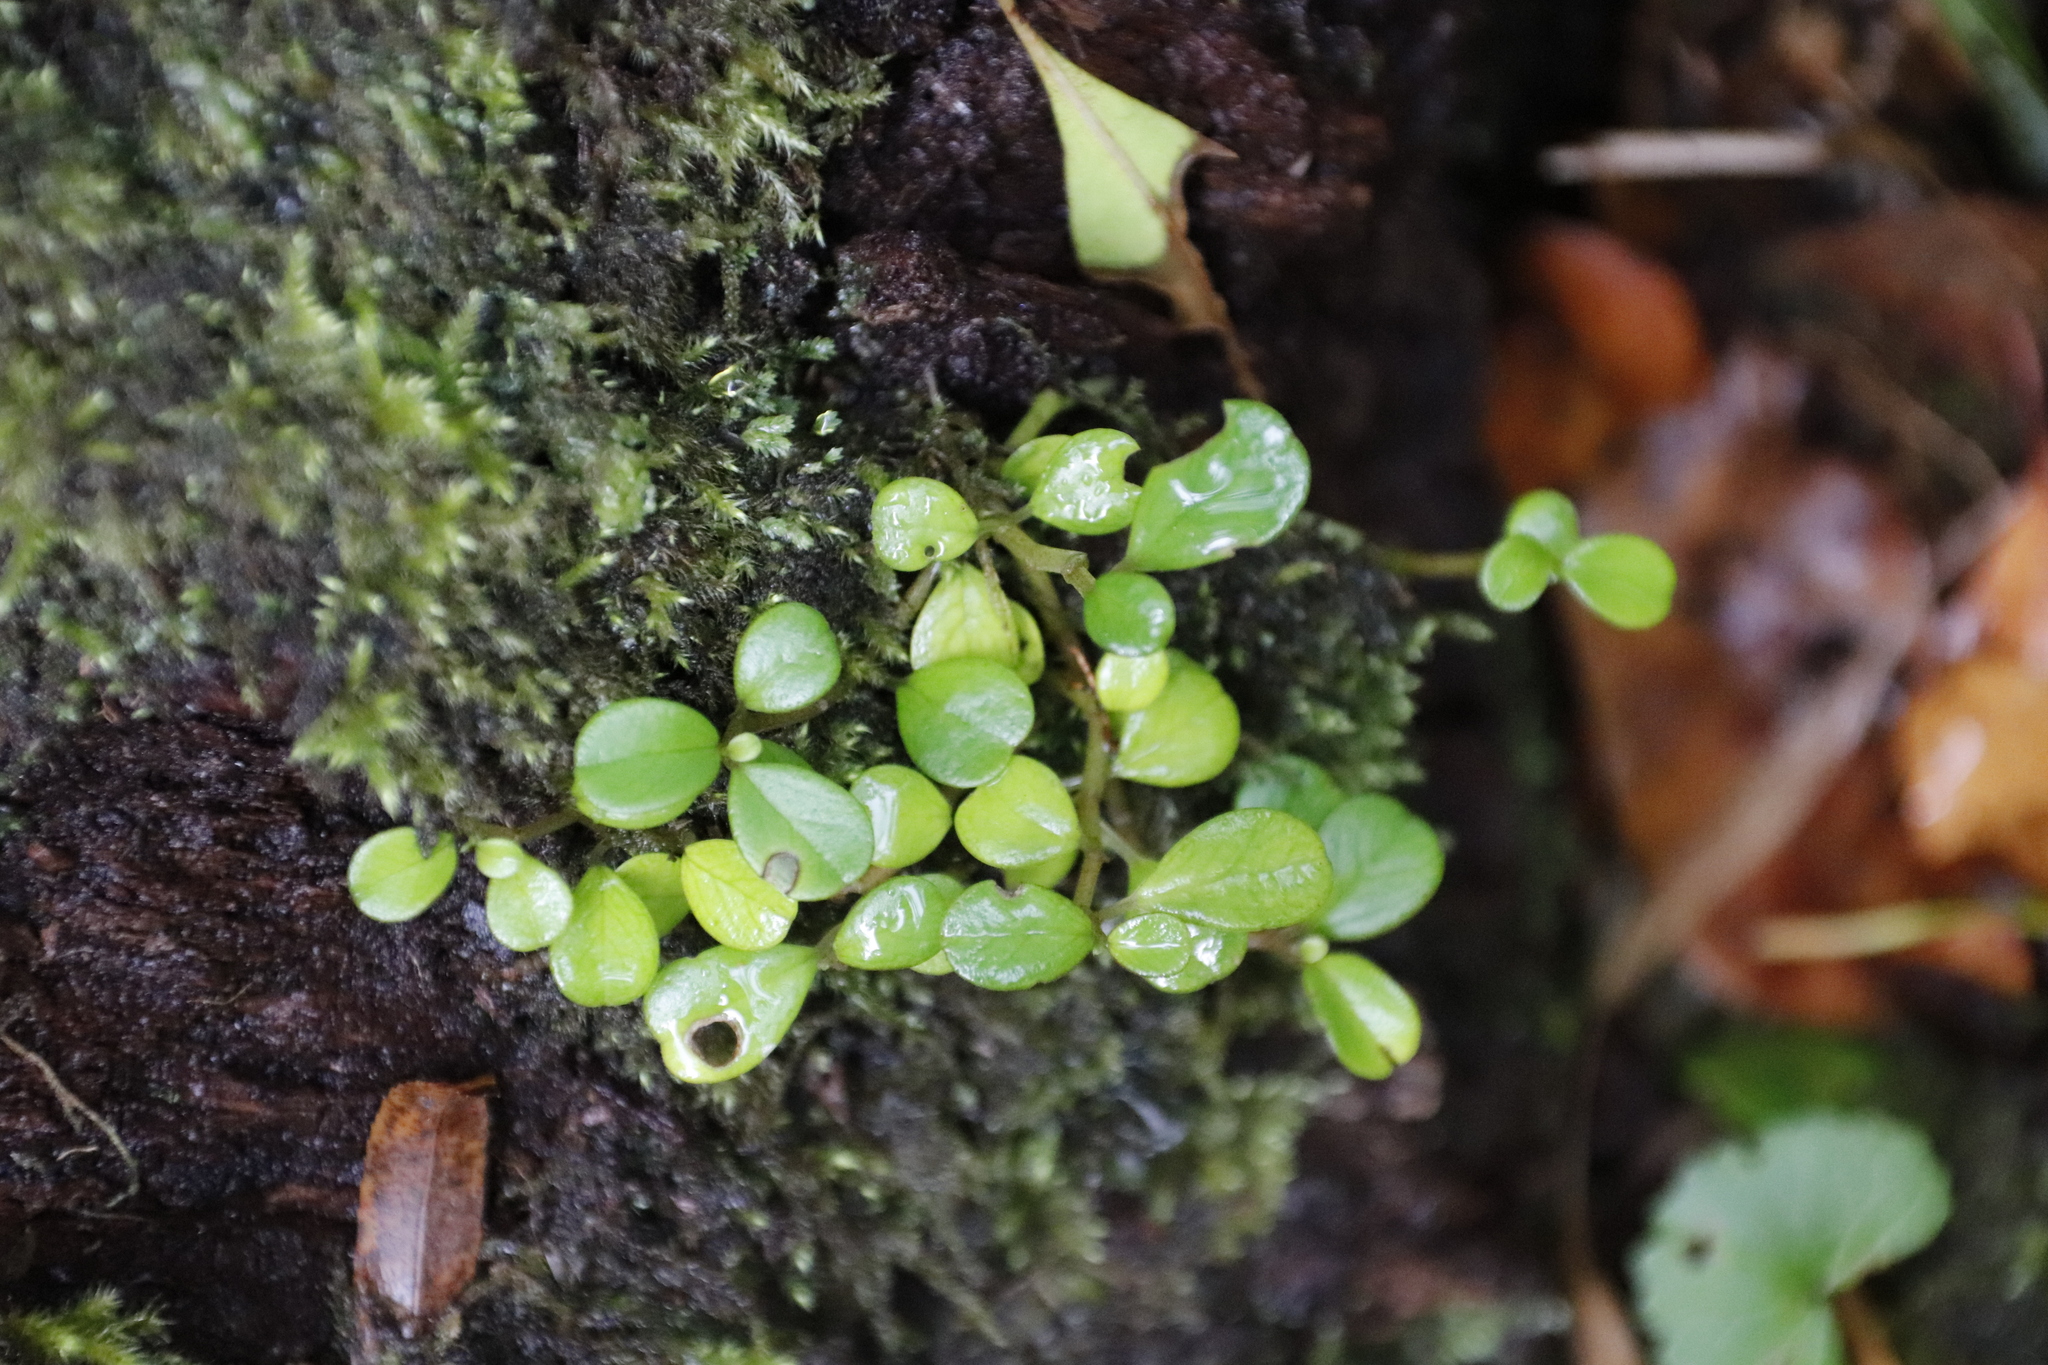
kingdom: Plantae
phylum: Tracheophyta
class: Magnoliopsida
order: Piperales
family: Piperaceae
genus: Peperomia
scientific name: Peperomia retusa
